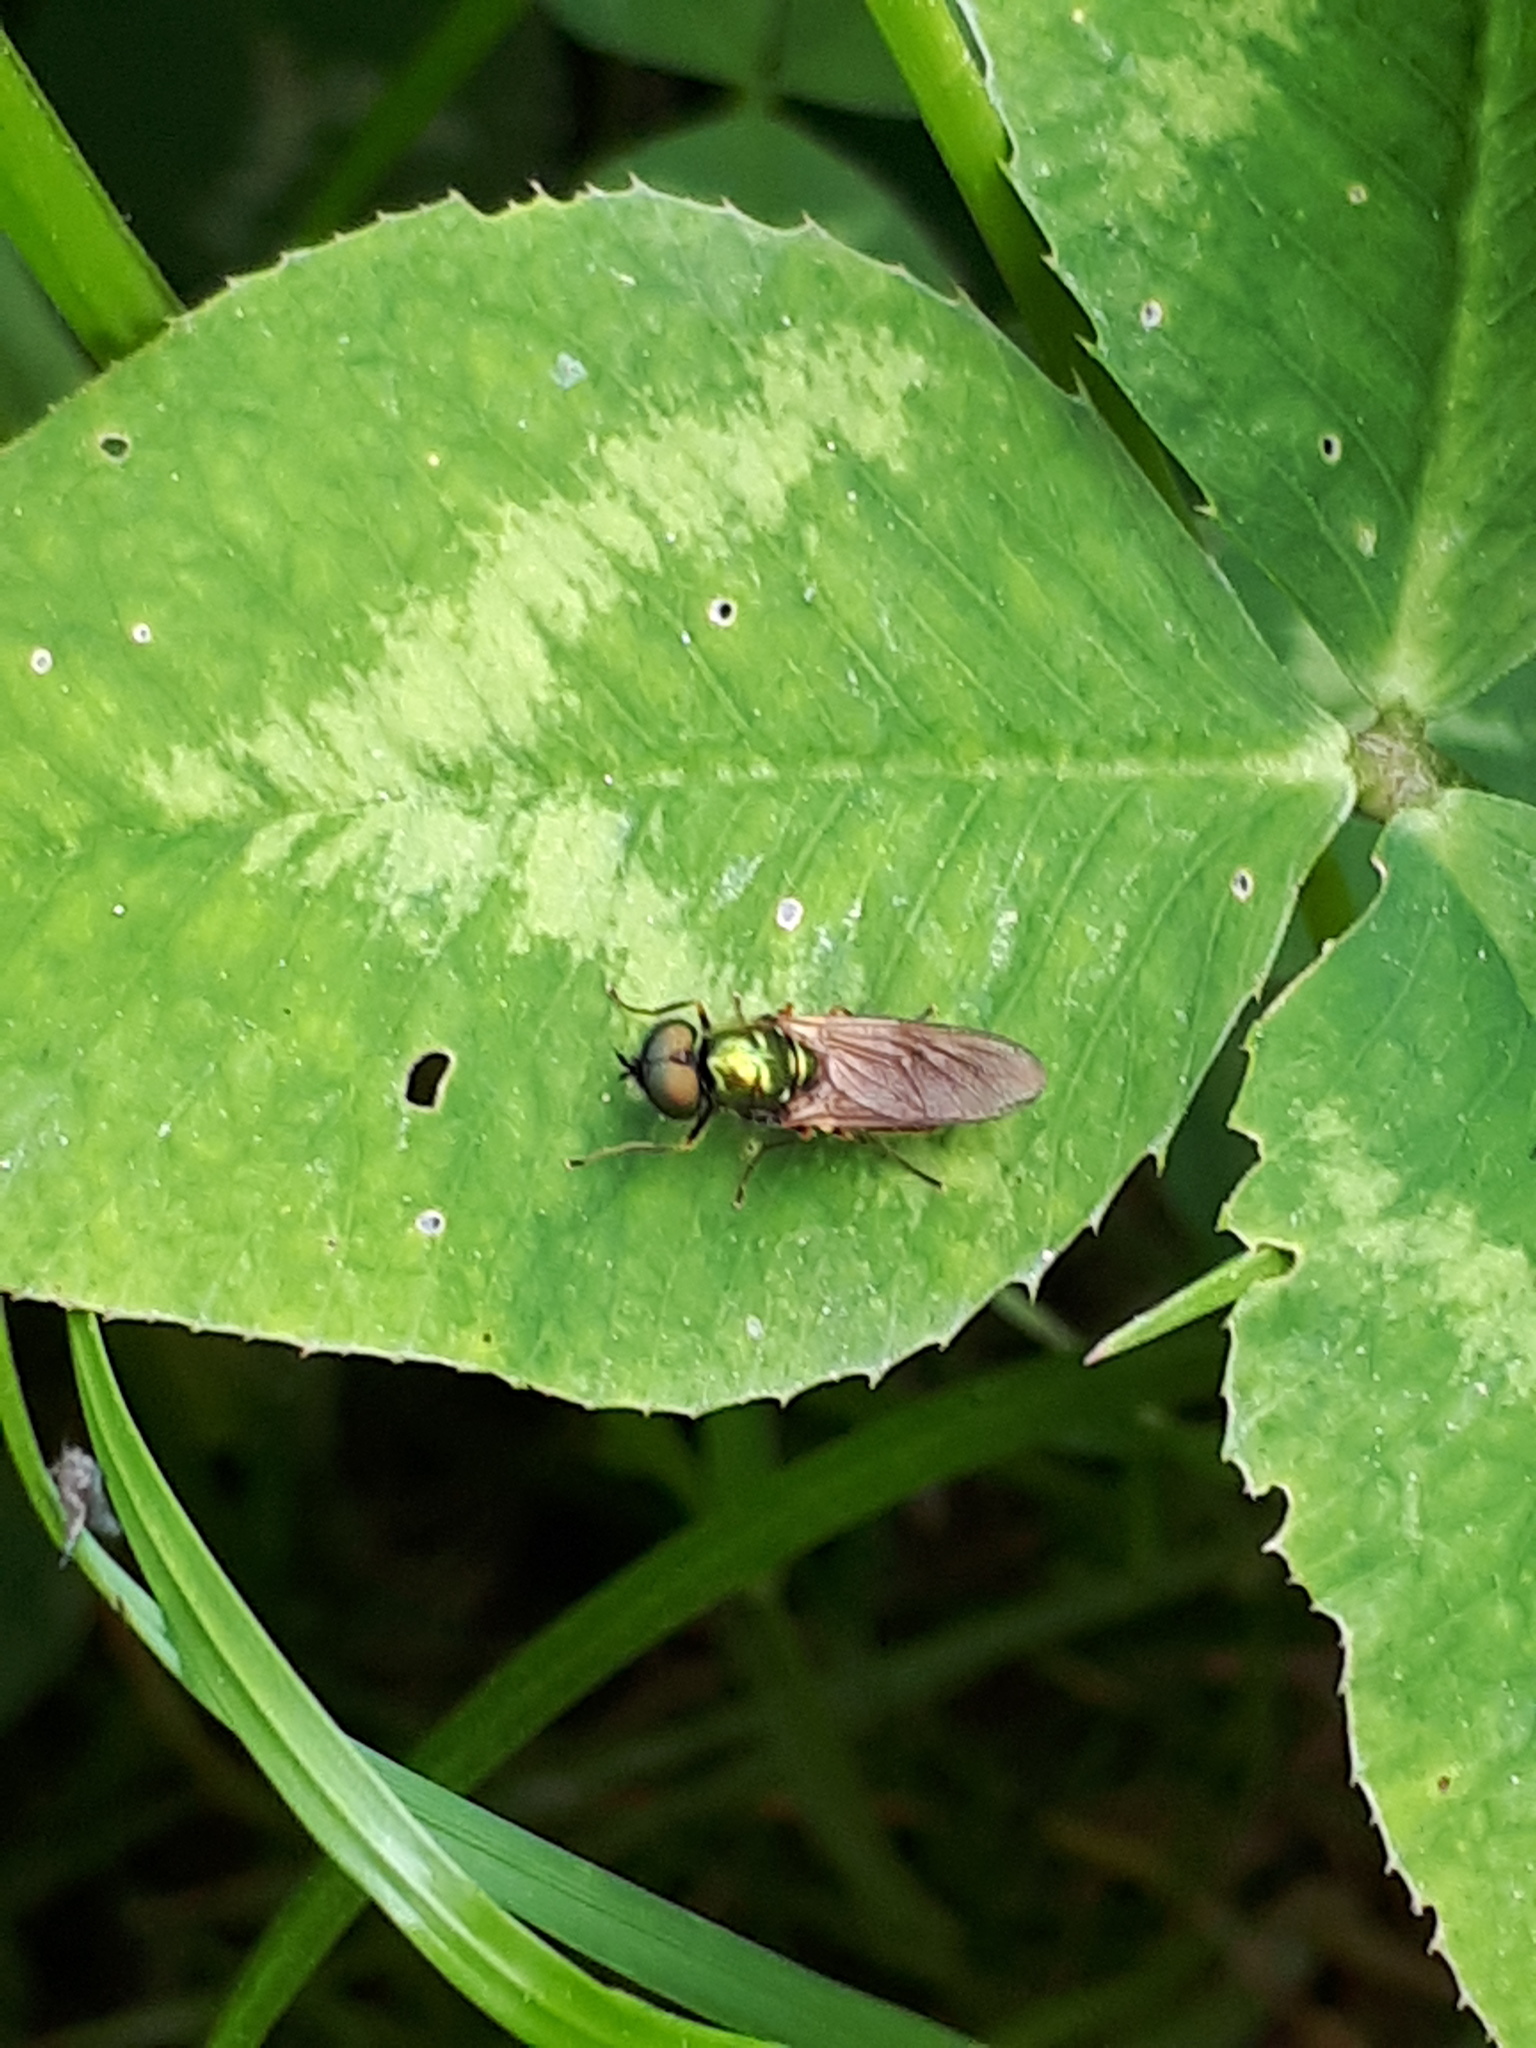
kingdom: Animalia
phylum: Arthropoda
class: Insecta
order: Diptera
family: Stratiomyidae
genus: Chloromyia
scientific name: Chloromyia formosa
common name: Soldier fly
